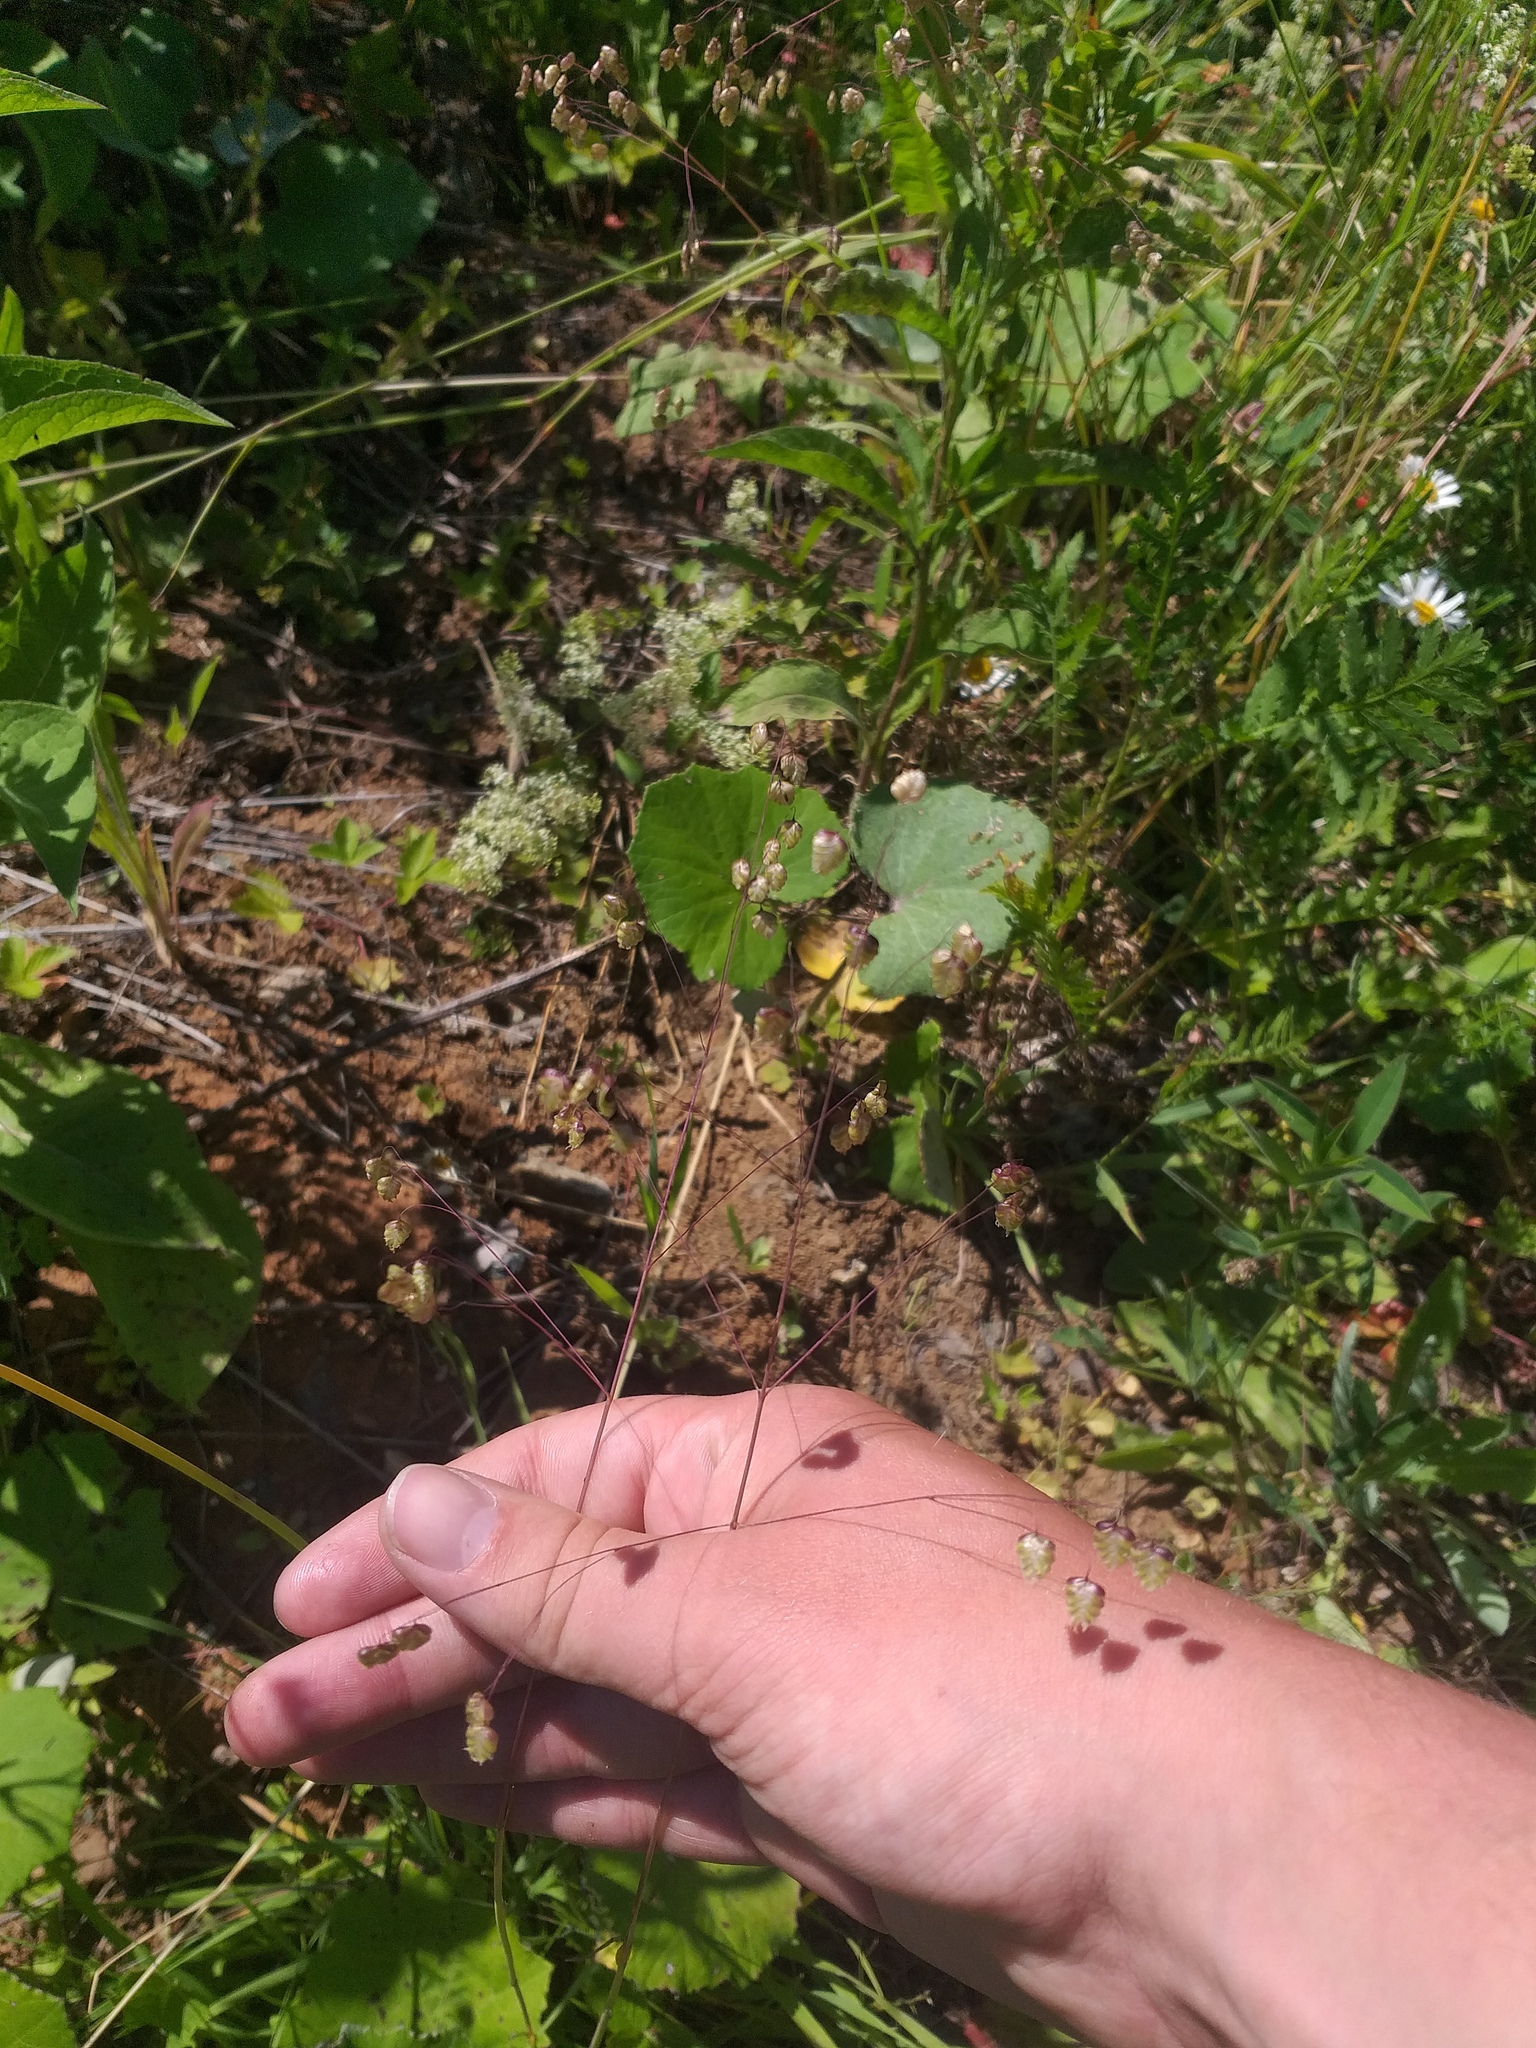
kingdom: Plantae
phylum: Tracheophyta
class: Liliopsida
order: Poales
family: Poaceae
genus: Briza
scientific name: Briza media
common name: Quaking grass
